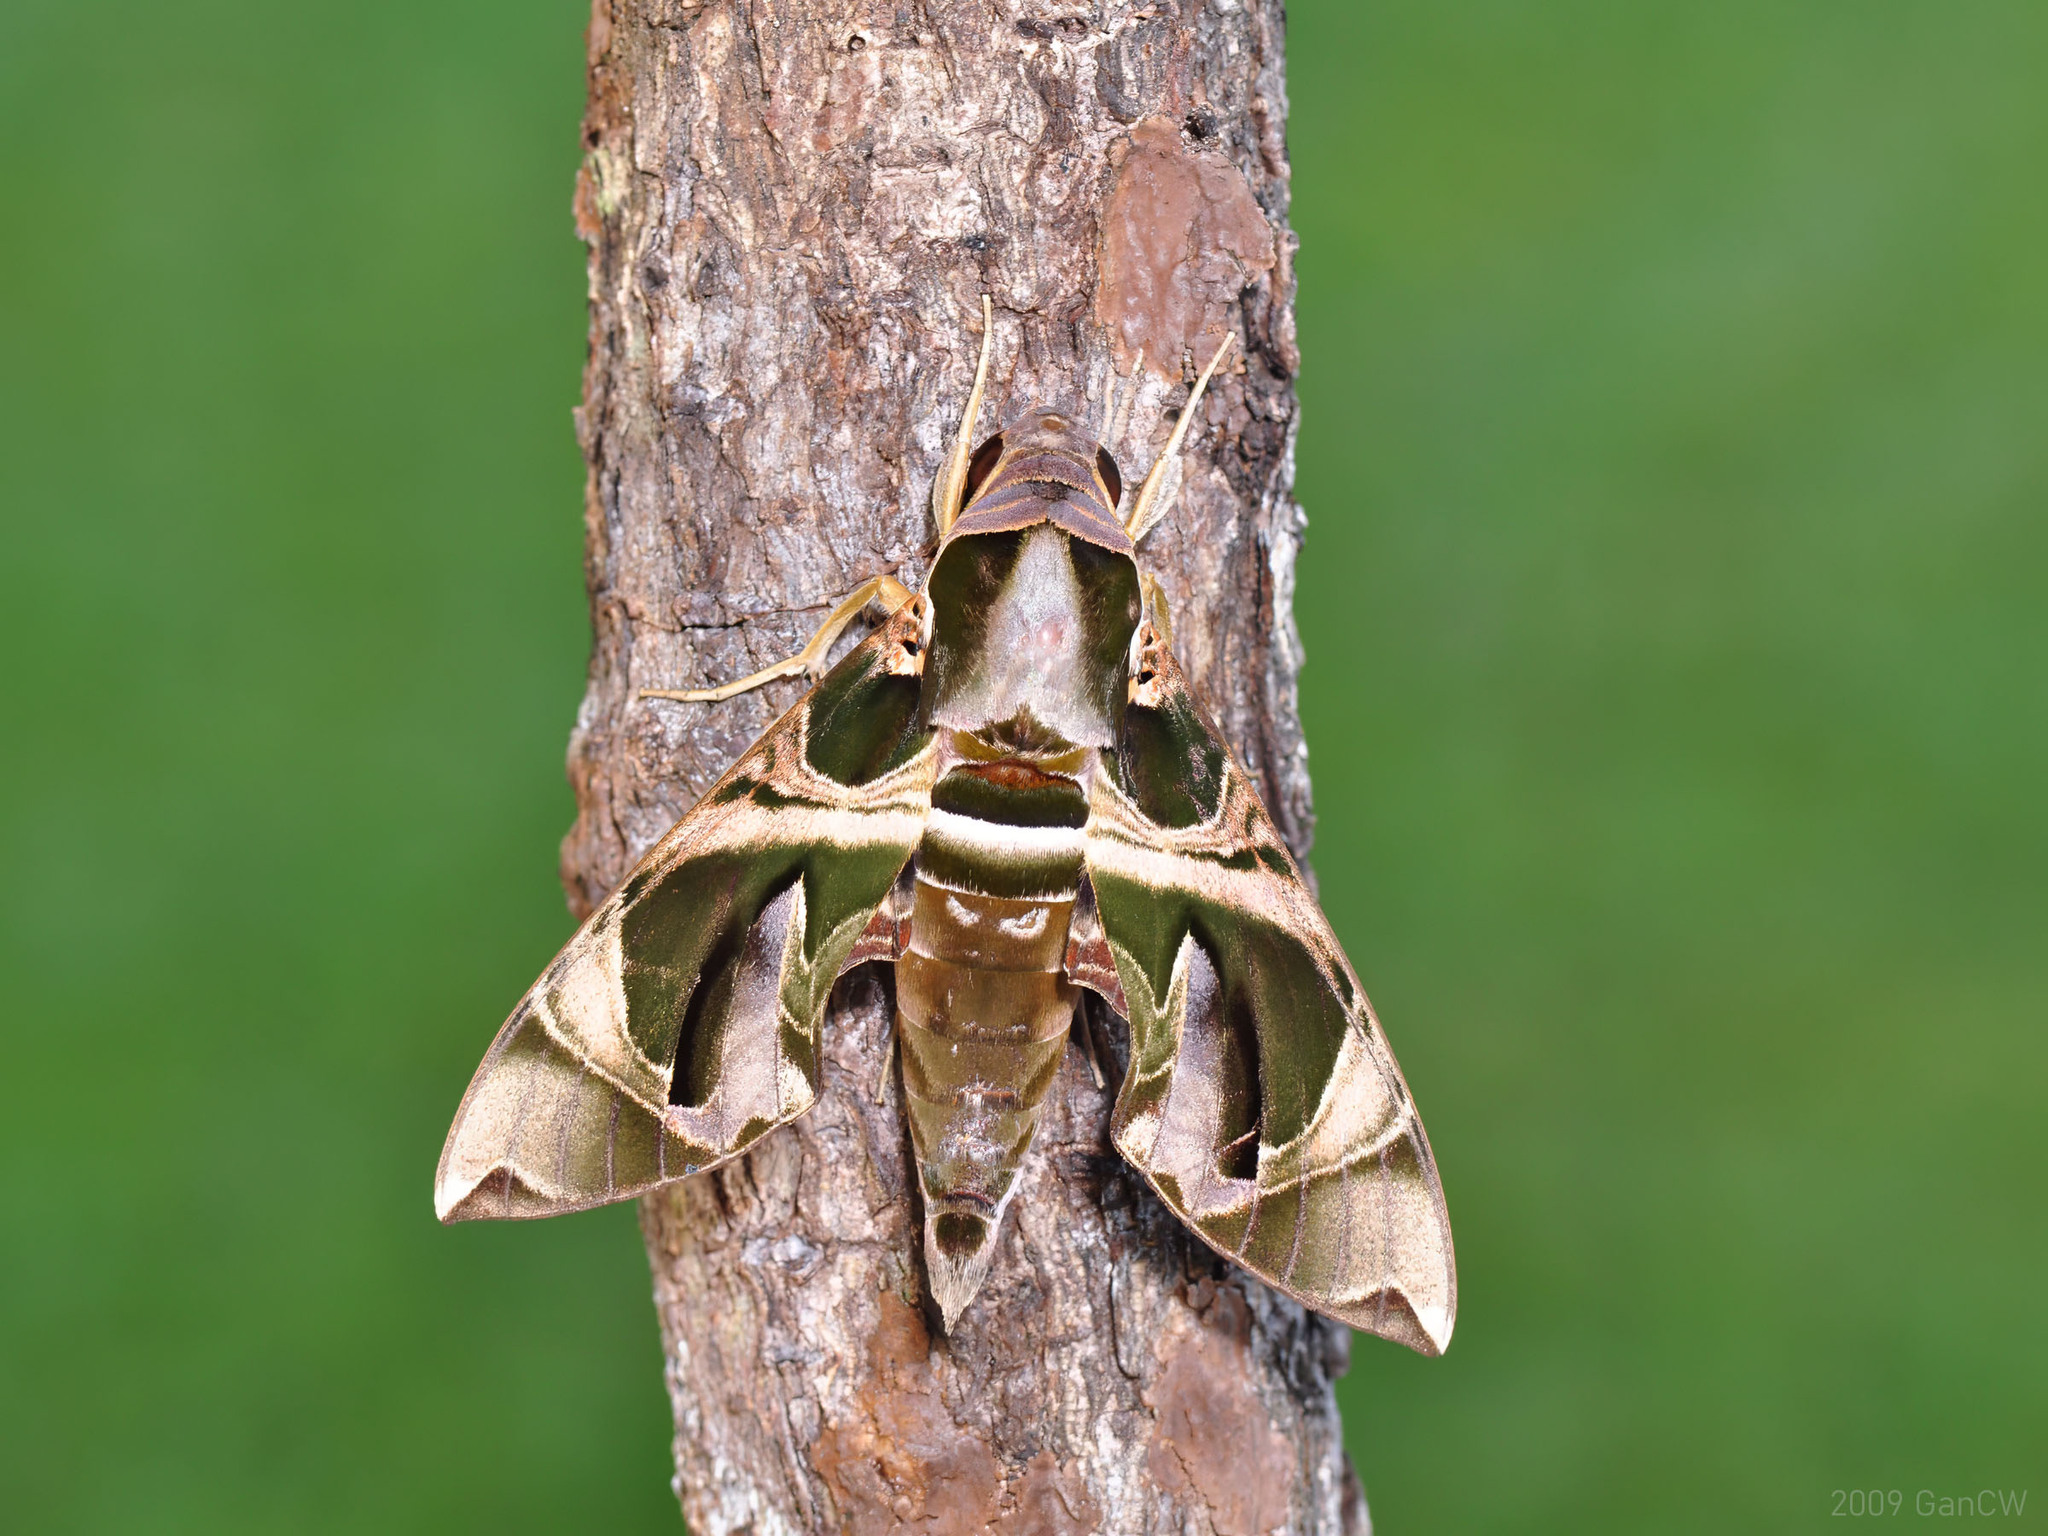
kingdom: Animalia
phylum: Arthropoda
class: Insecta
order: Lepidoptera
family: Sphingidae
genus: Daphnis
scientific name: Daphnis hypothous
